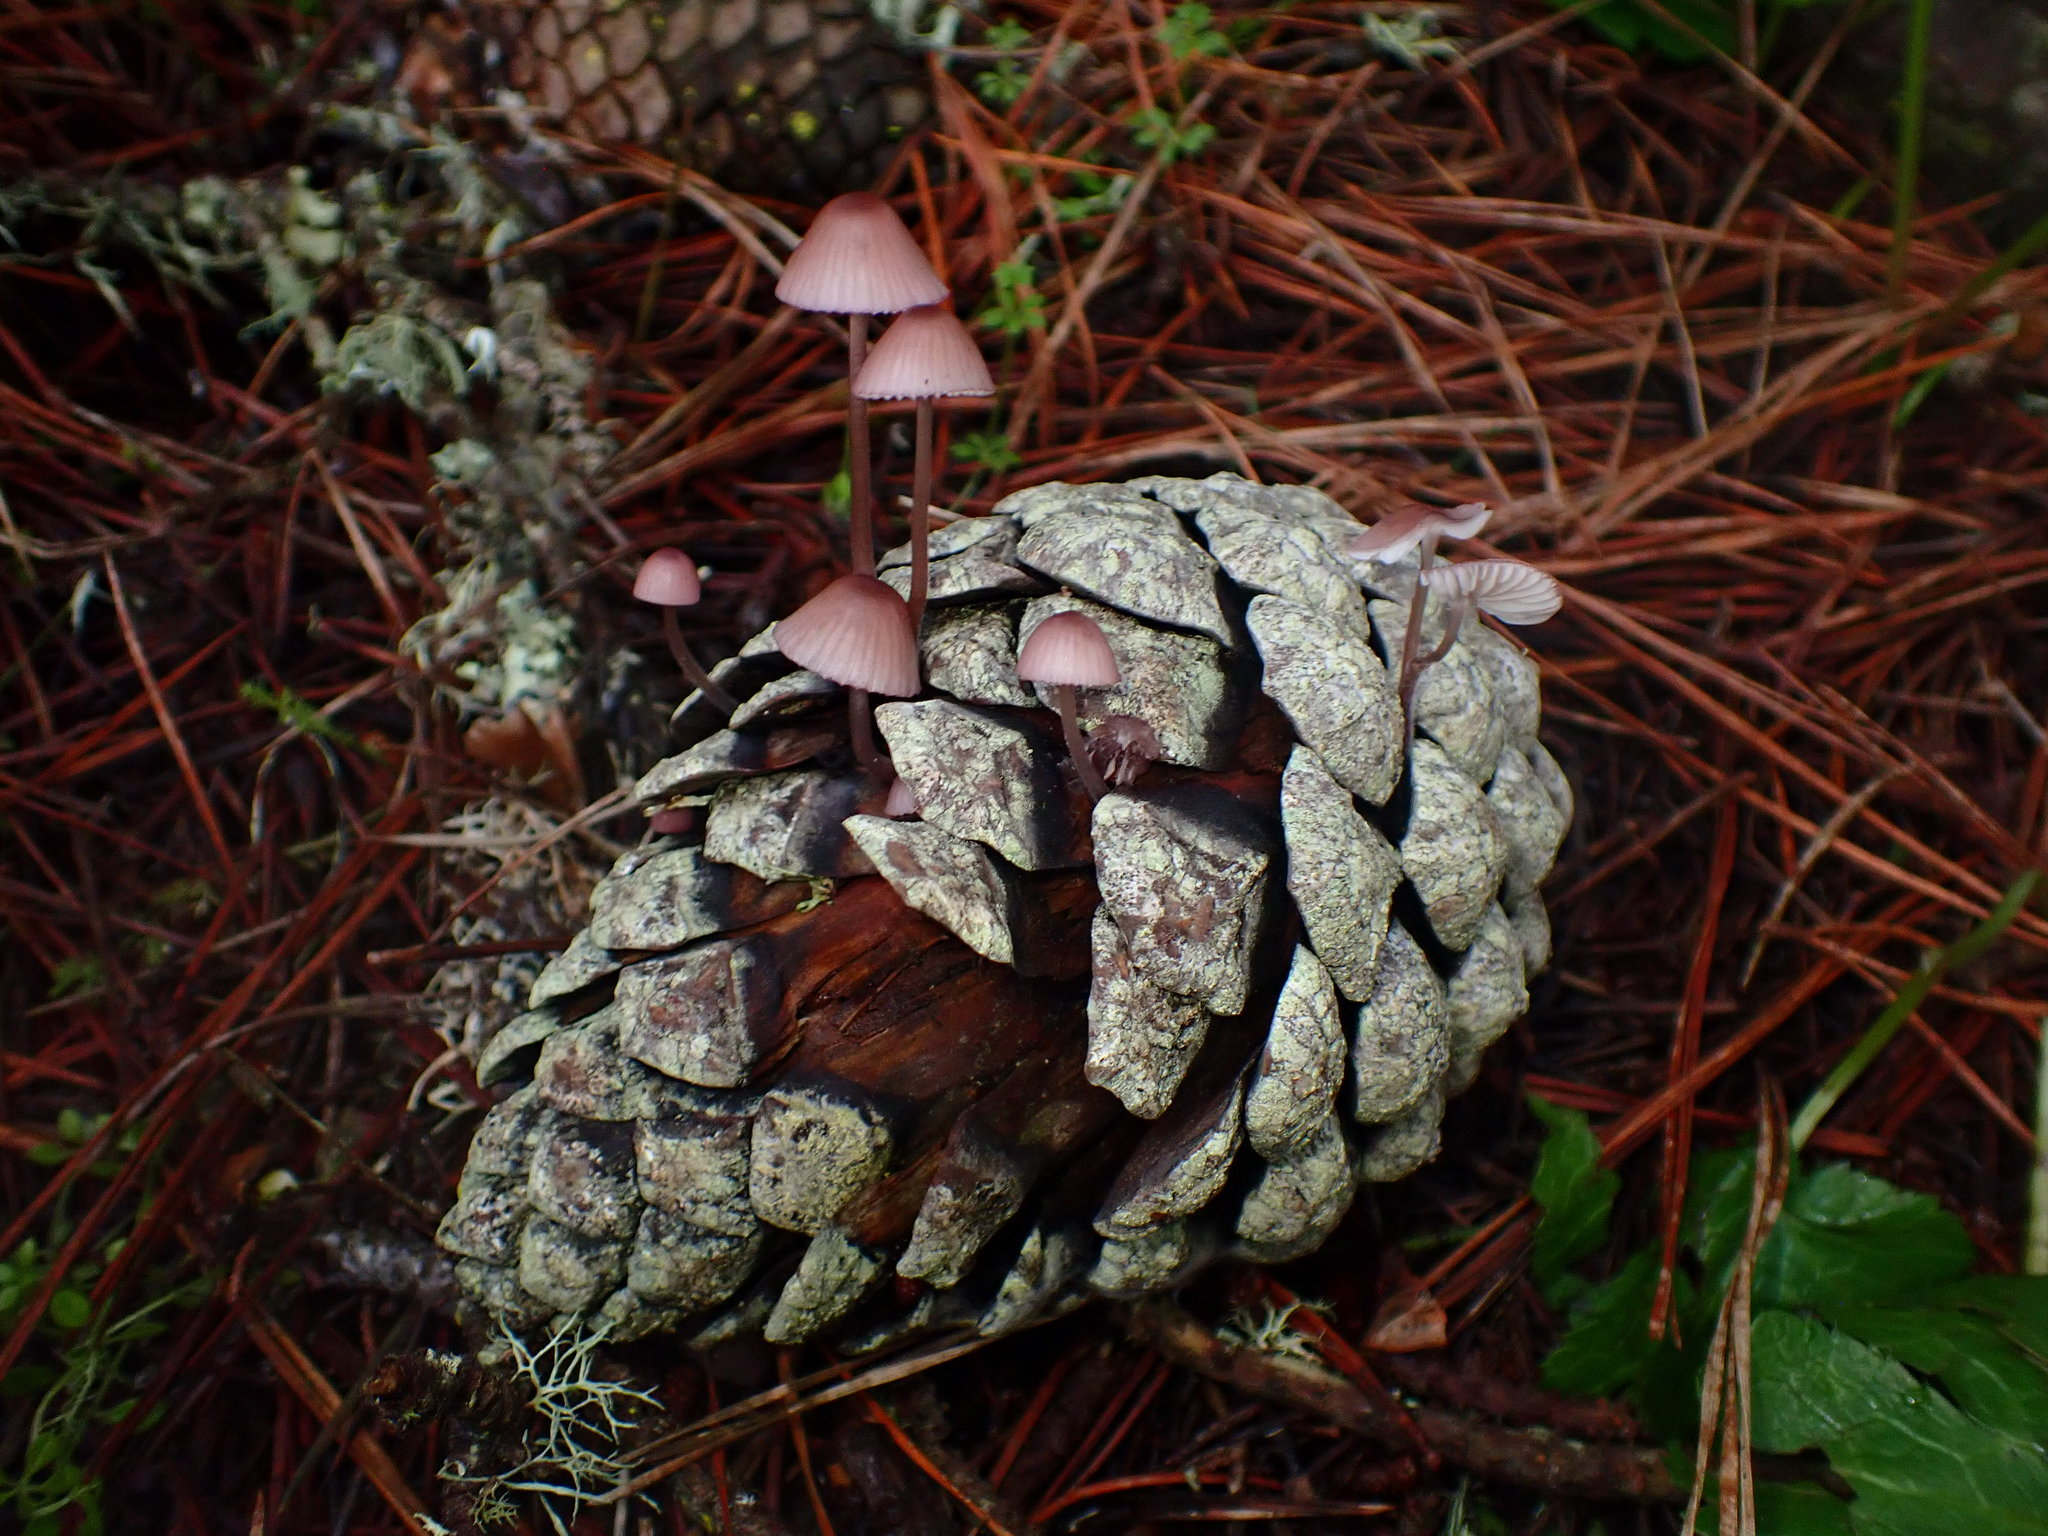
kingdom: Fungi
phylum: Basidiomycota
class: Agaricomycetes
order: Agaricales
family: Mycenaceae
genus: Mycena
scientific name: Mycena purpureofusca
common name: Purple edge bonnet
